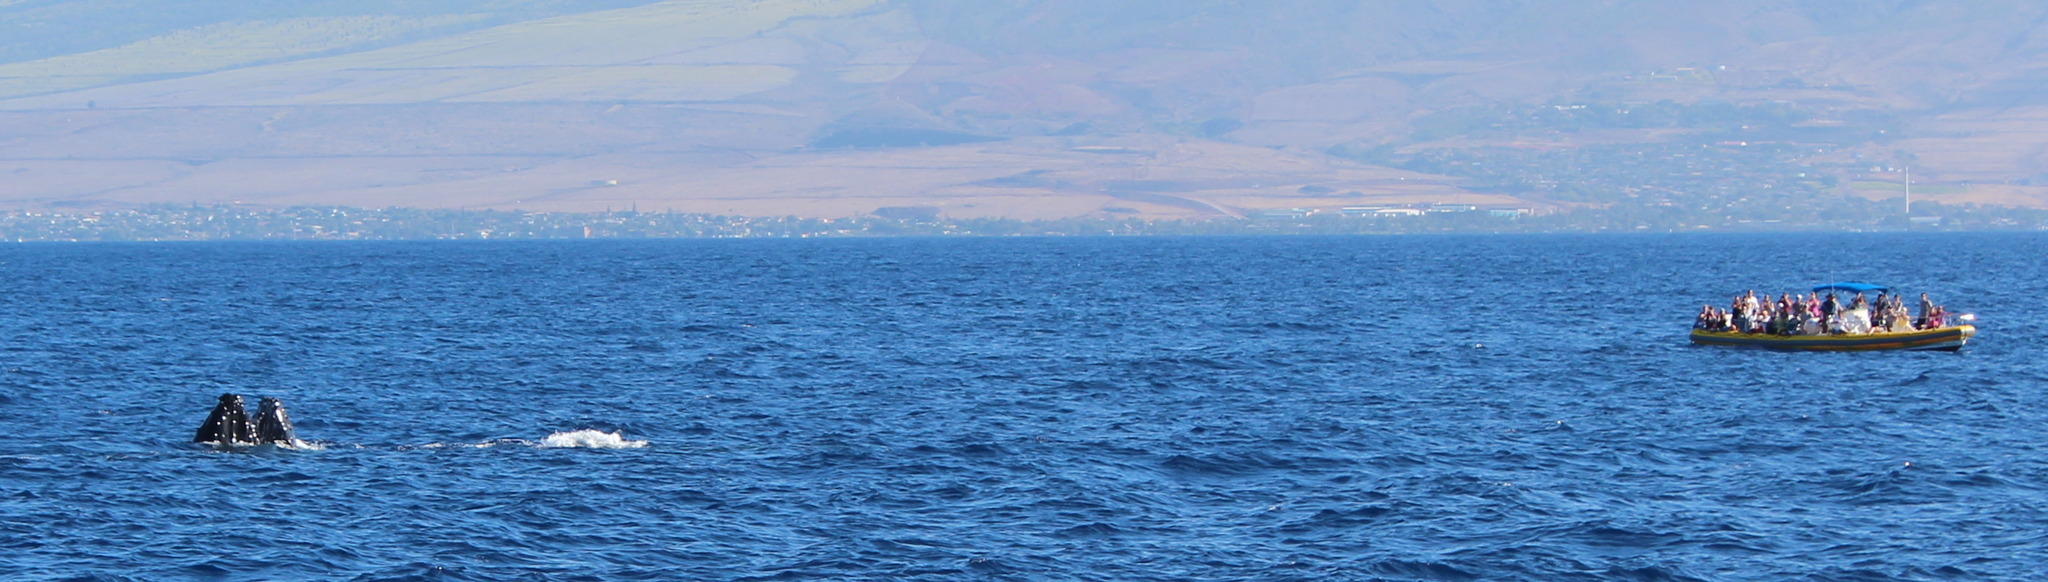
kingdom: Animalia
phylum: Chordata
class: Mammalia
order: Cetacea
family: Balaenopteridae
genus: Megaptera
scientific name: Megaptera novaeangliae
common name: Humpback whale
